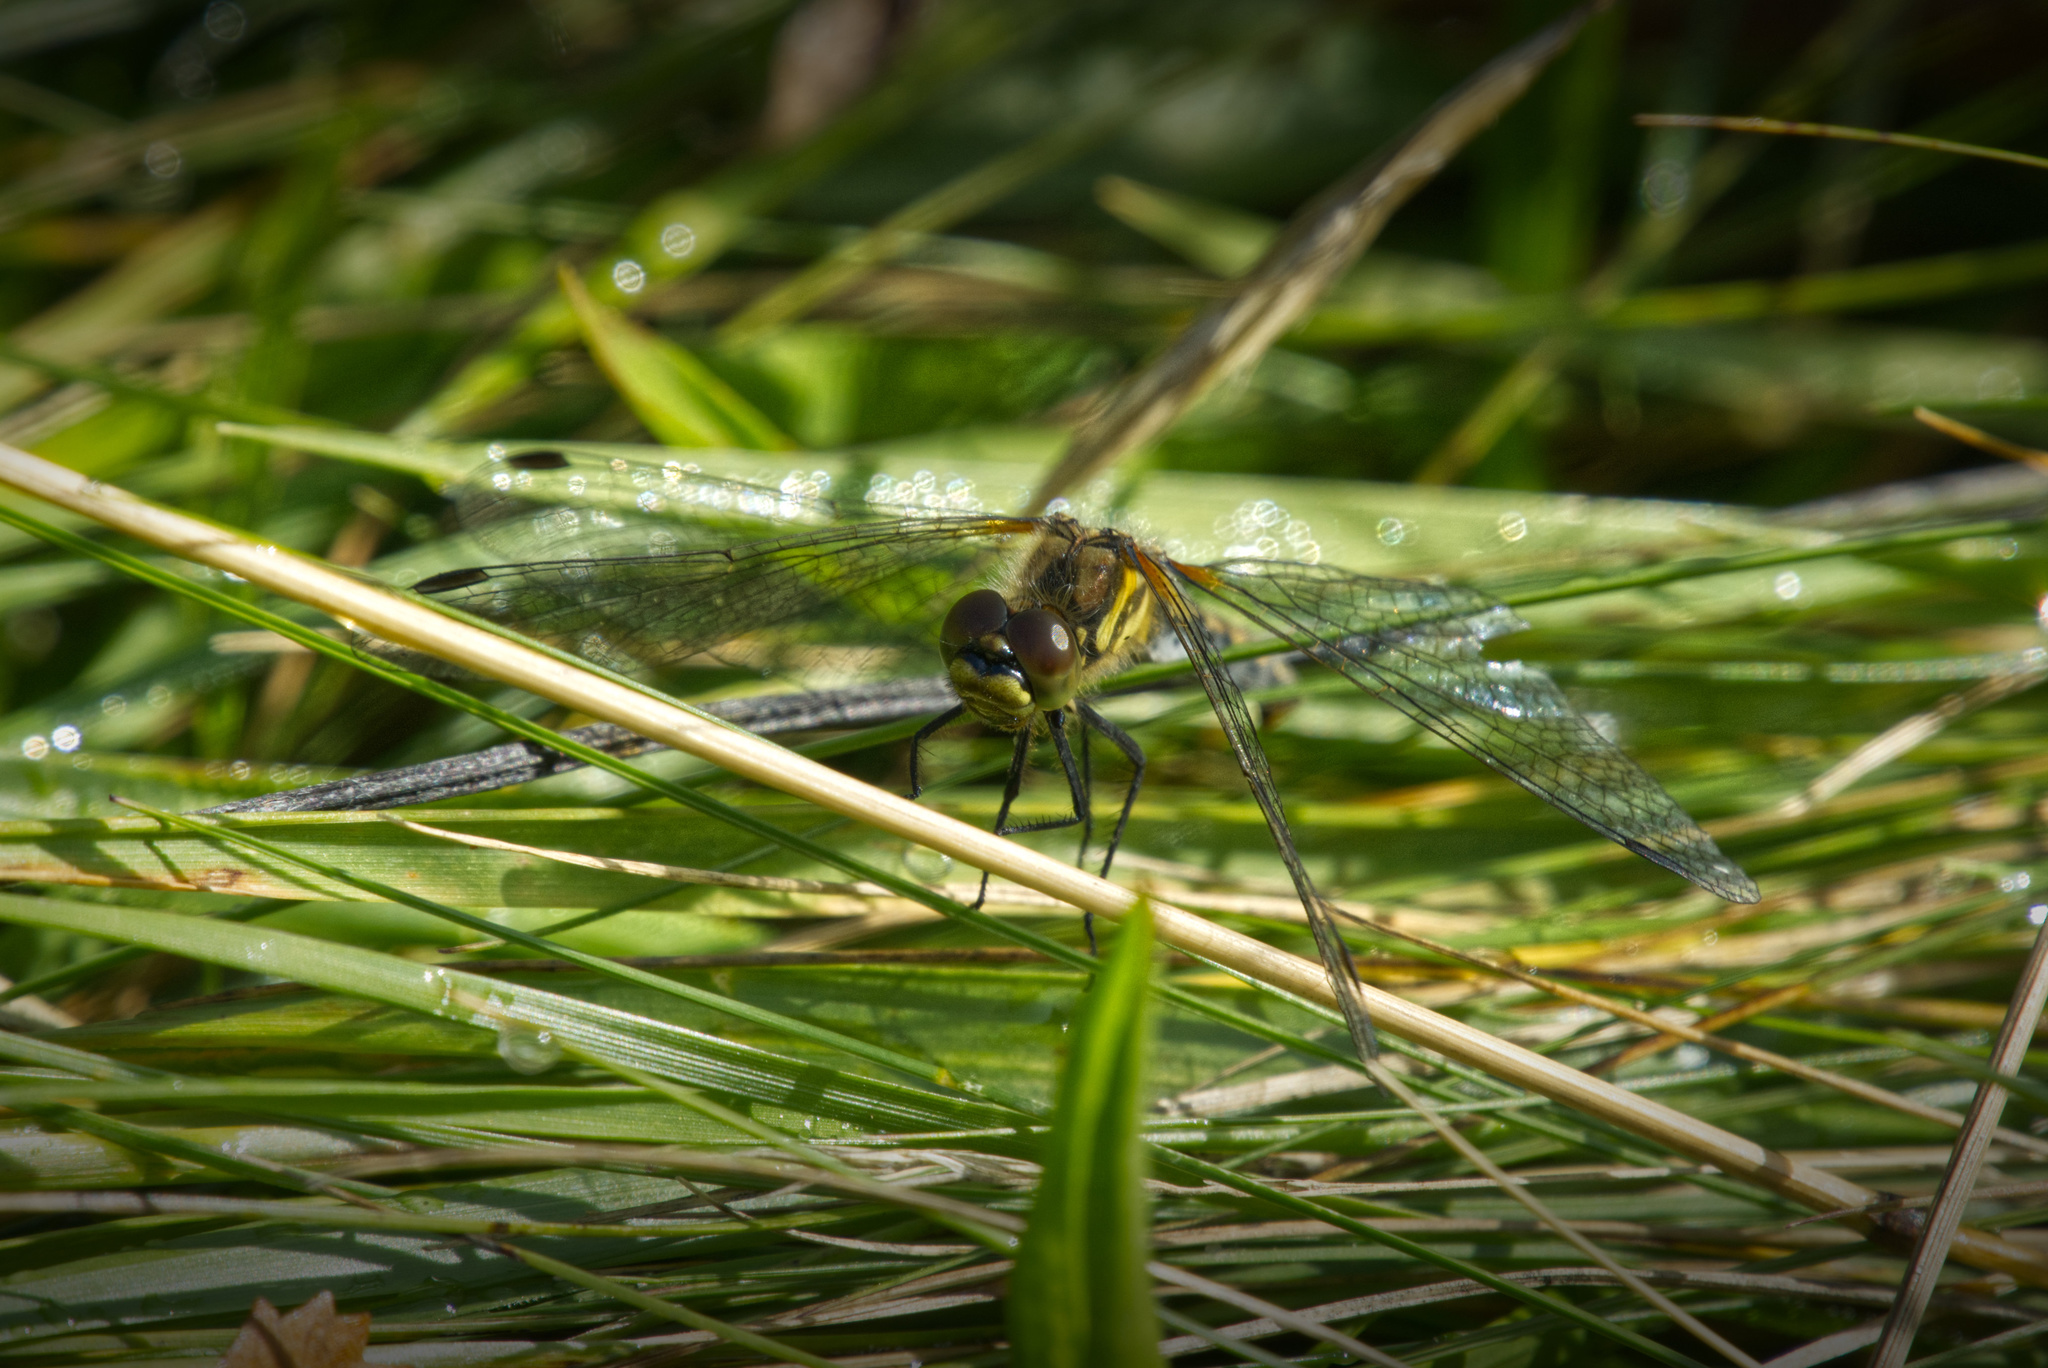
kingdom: Animalia
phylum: Arthropoda
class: Insecta
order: Odonata
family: Libellulidae
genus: Sympetrum
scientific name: Sympetrum danae
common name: Black darter
